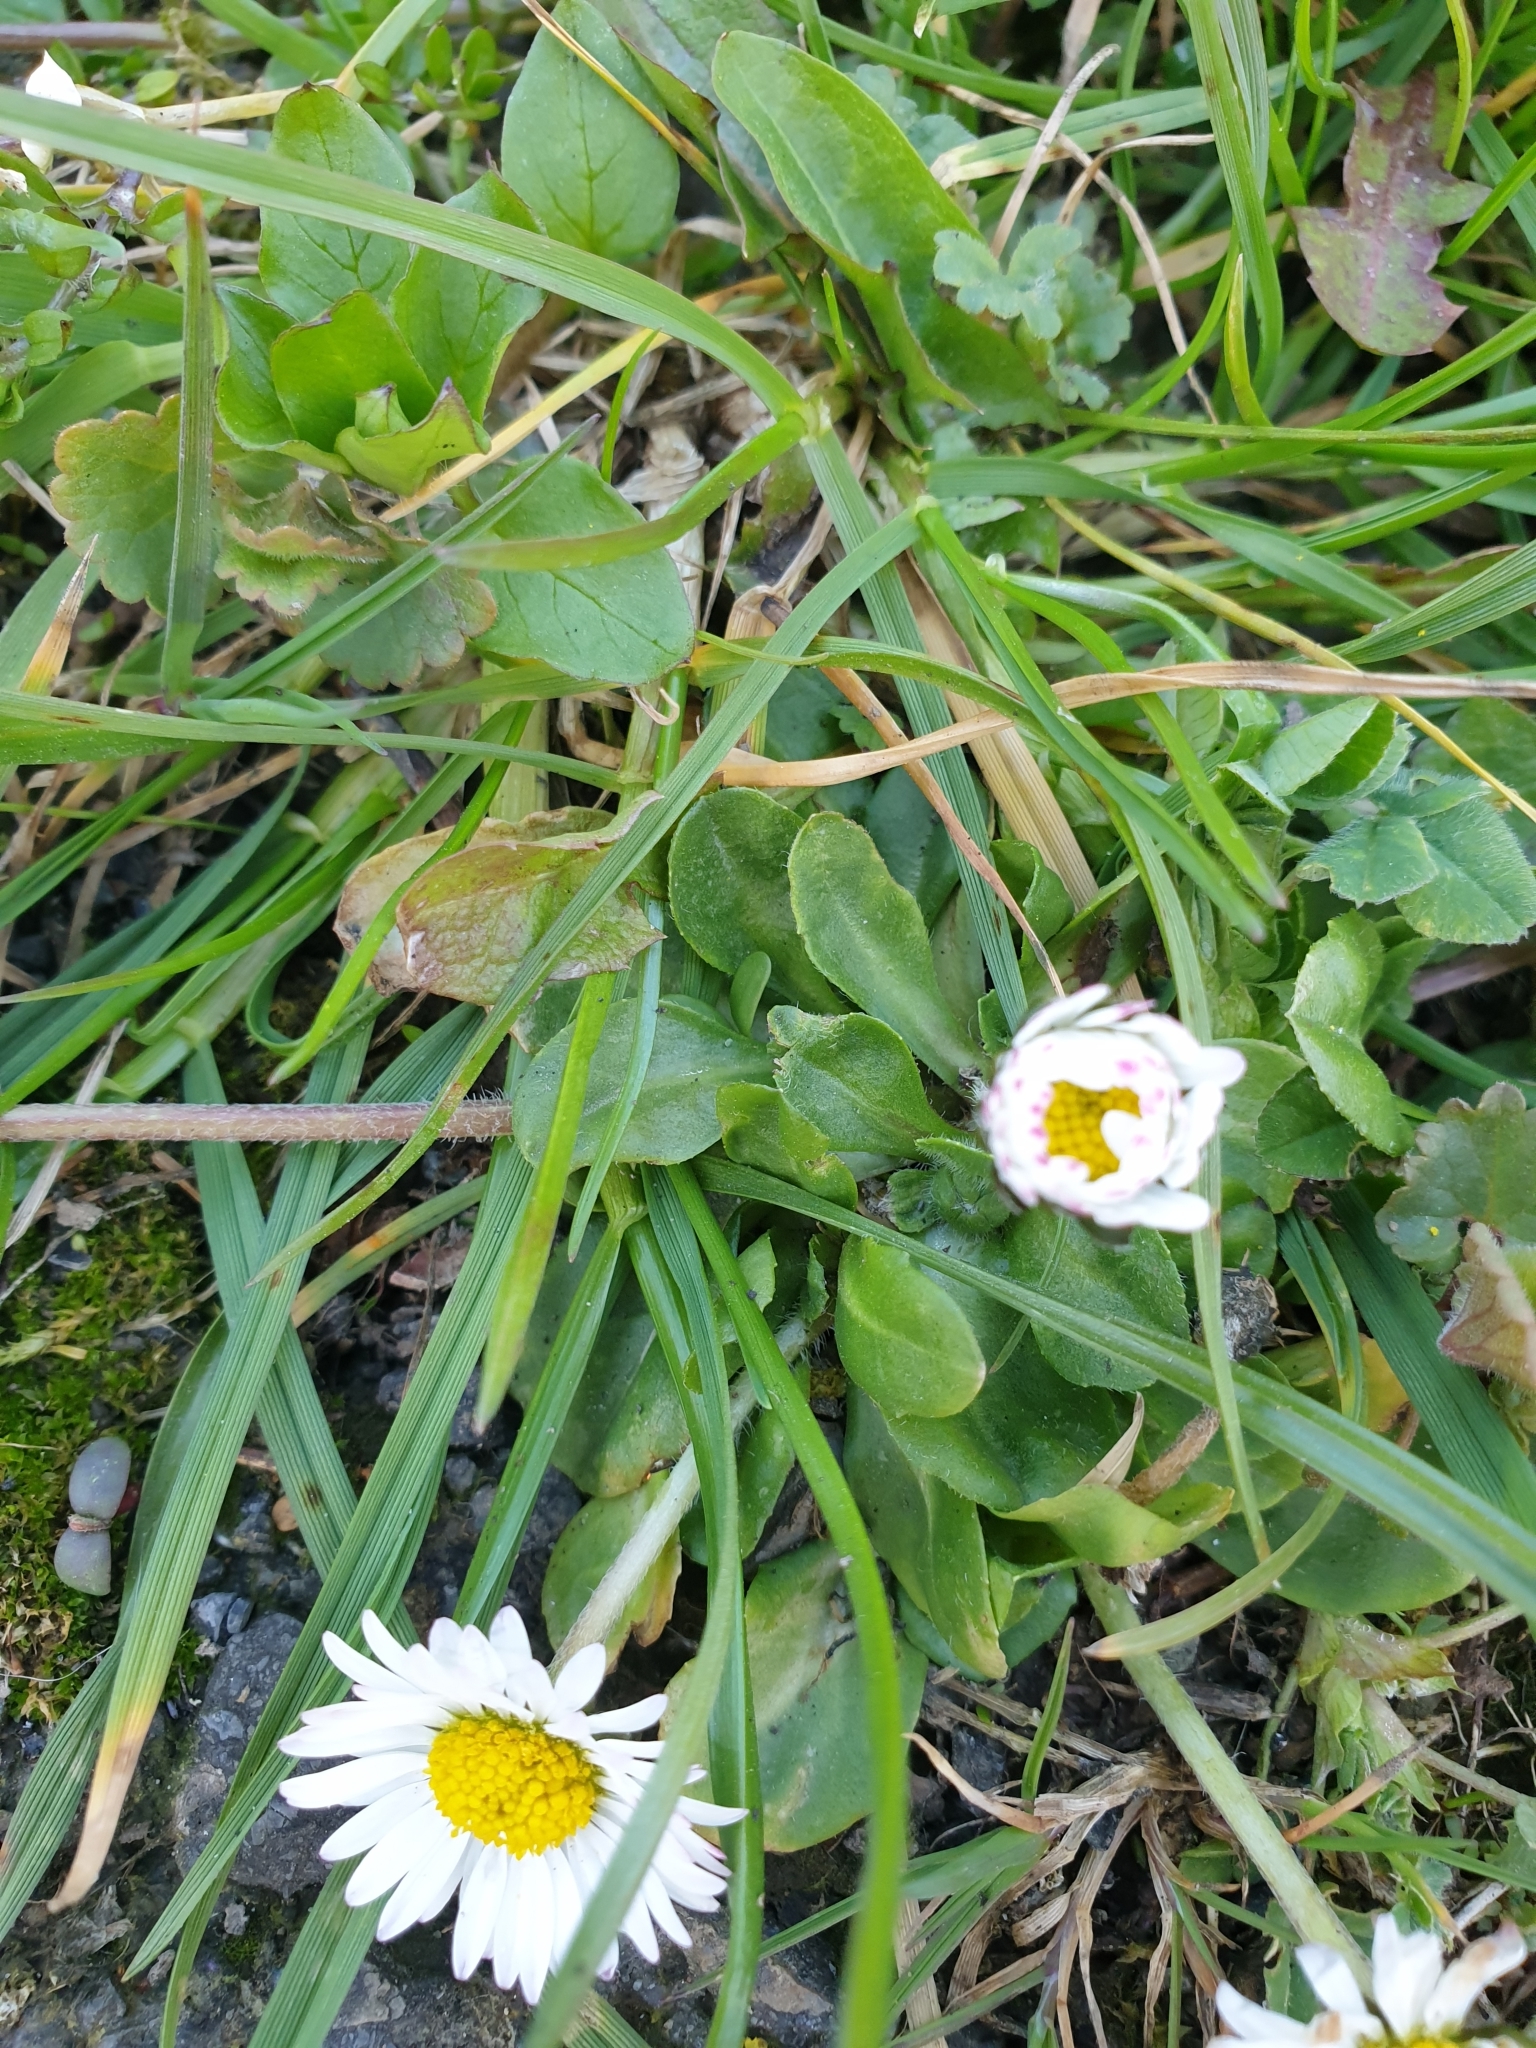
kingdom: Plantae
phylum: Tracheophyta
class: Magnoliopsida
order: Asterales
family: Asteraceae
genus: Bellis
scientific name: Bellis perennis
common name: Lawndaisy
